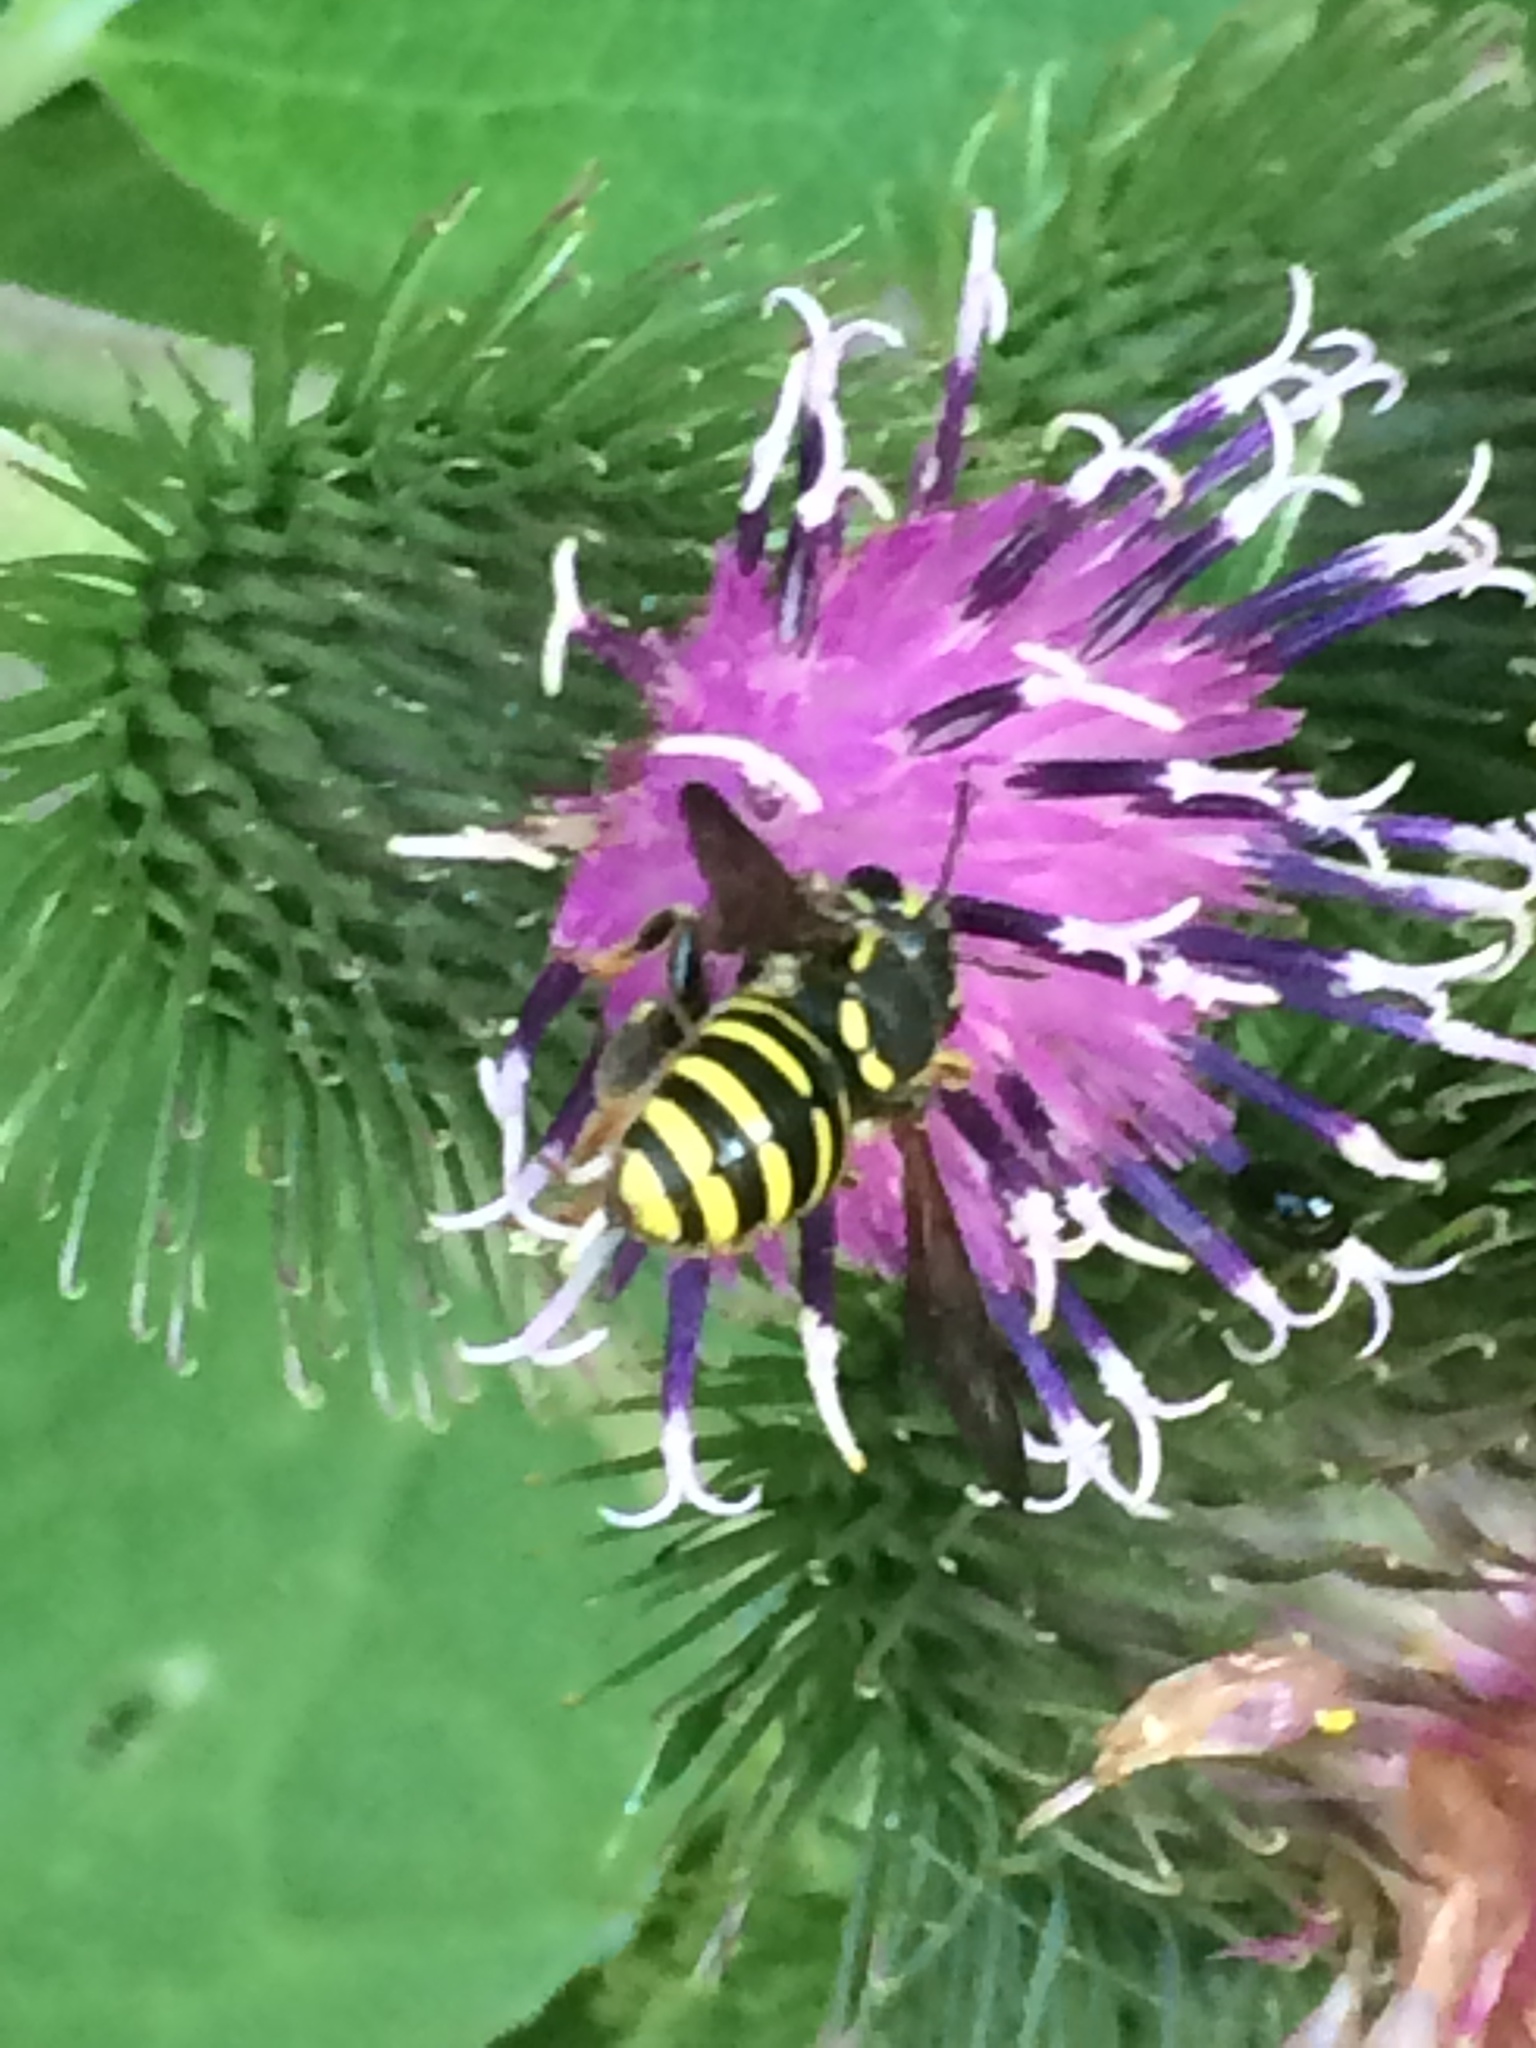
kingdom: Animalia
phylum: Arthropoda
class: Insecta
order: Hymenoptera
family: Megachilidae
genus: Paranthidium
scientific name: Paranthidium jugatorium
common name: Sunflower burrowing-resin bee
